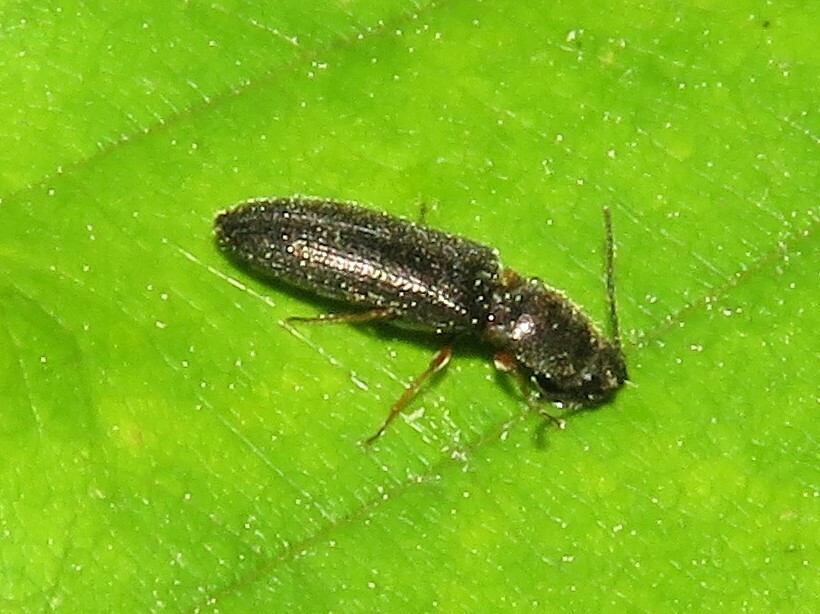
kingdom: Animalia
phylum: Arthropoda
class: Insecta
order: Coleoptera
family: Elateridae
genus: Limonius
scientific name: Limonius quercinus
